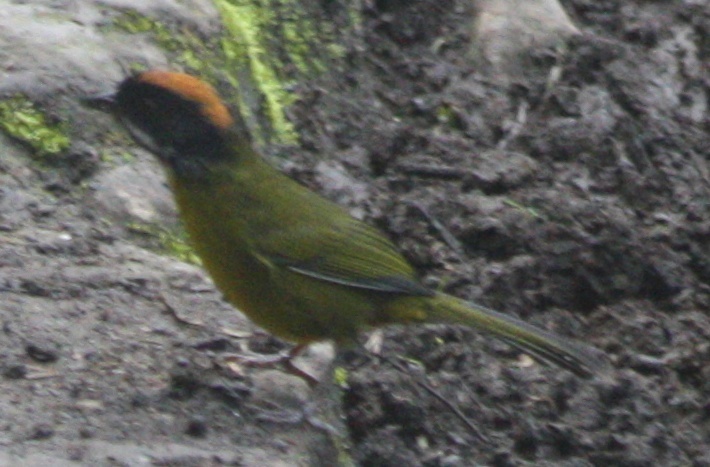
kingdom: Animalia
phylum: Chordata
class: Aves
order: Passeriformes
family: Passerellidae
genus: Atlapetes
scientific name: Atlapetes albofrenatus
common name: Moustached brushfinch
